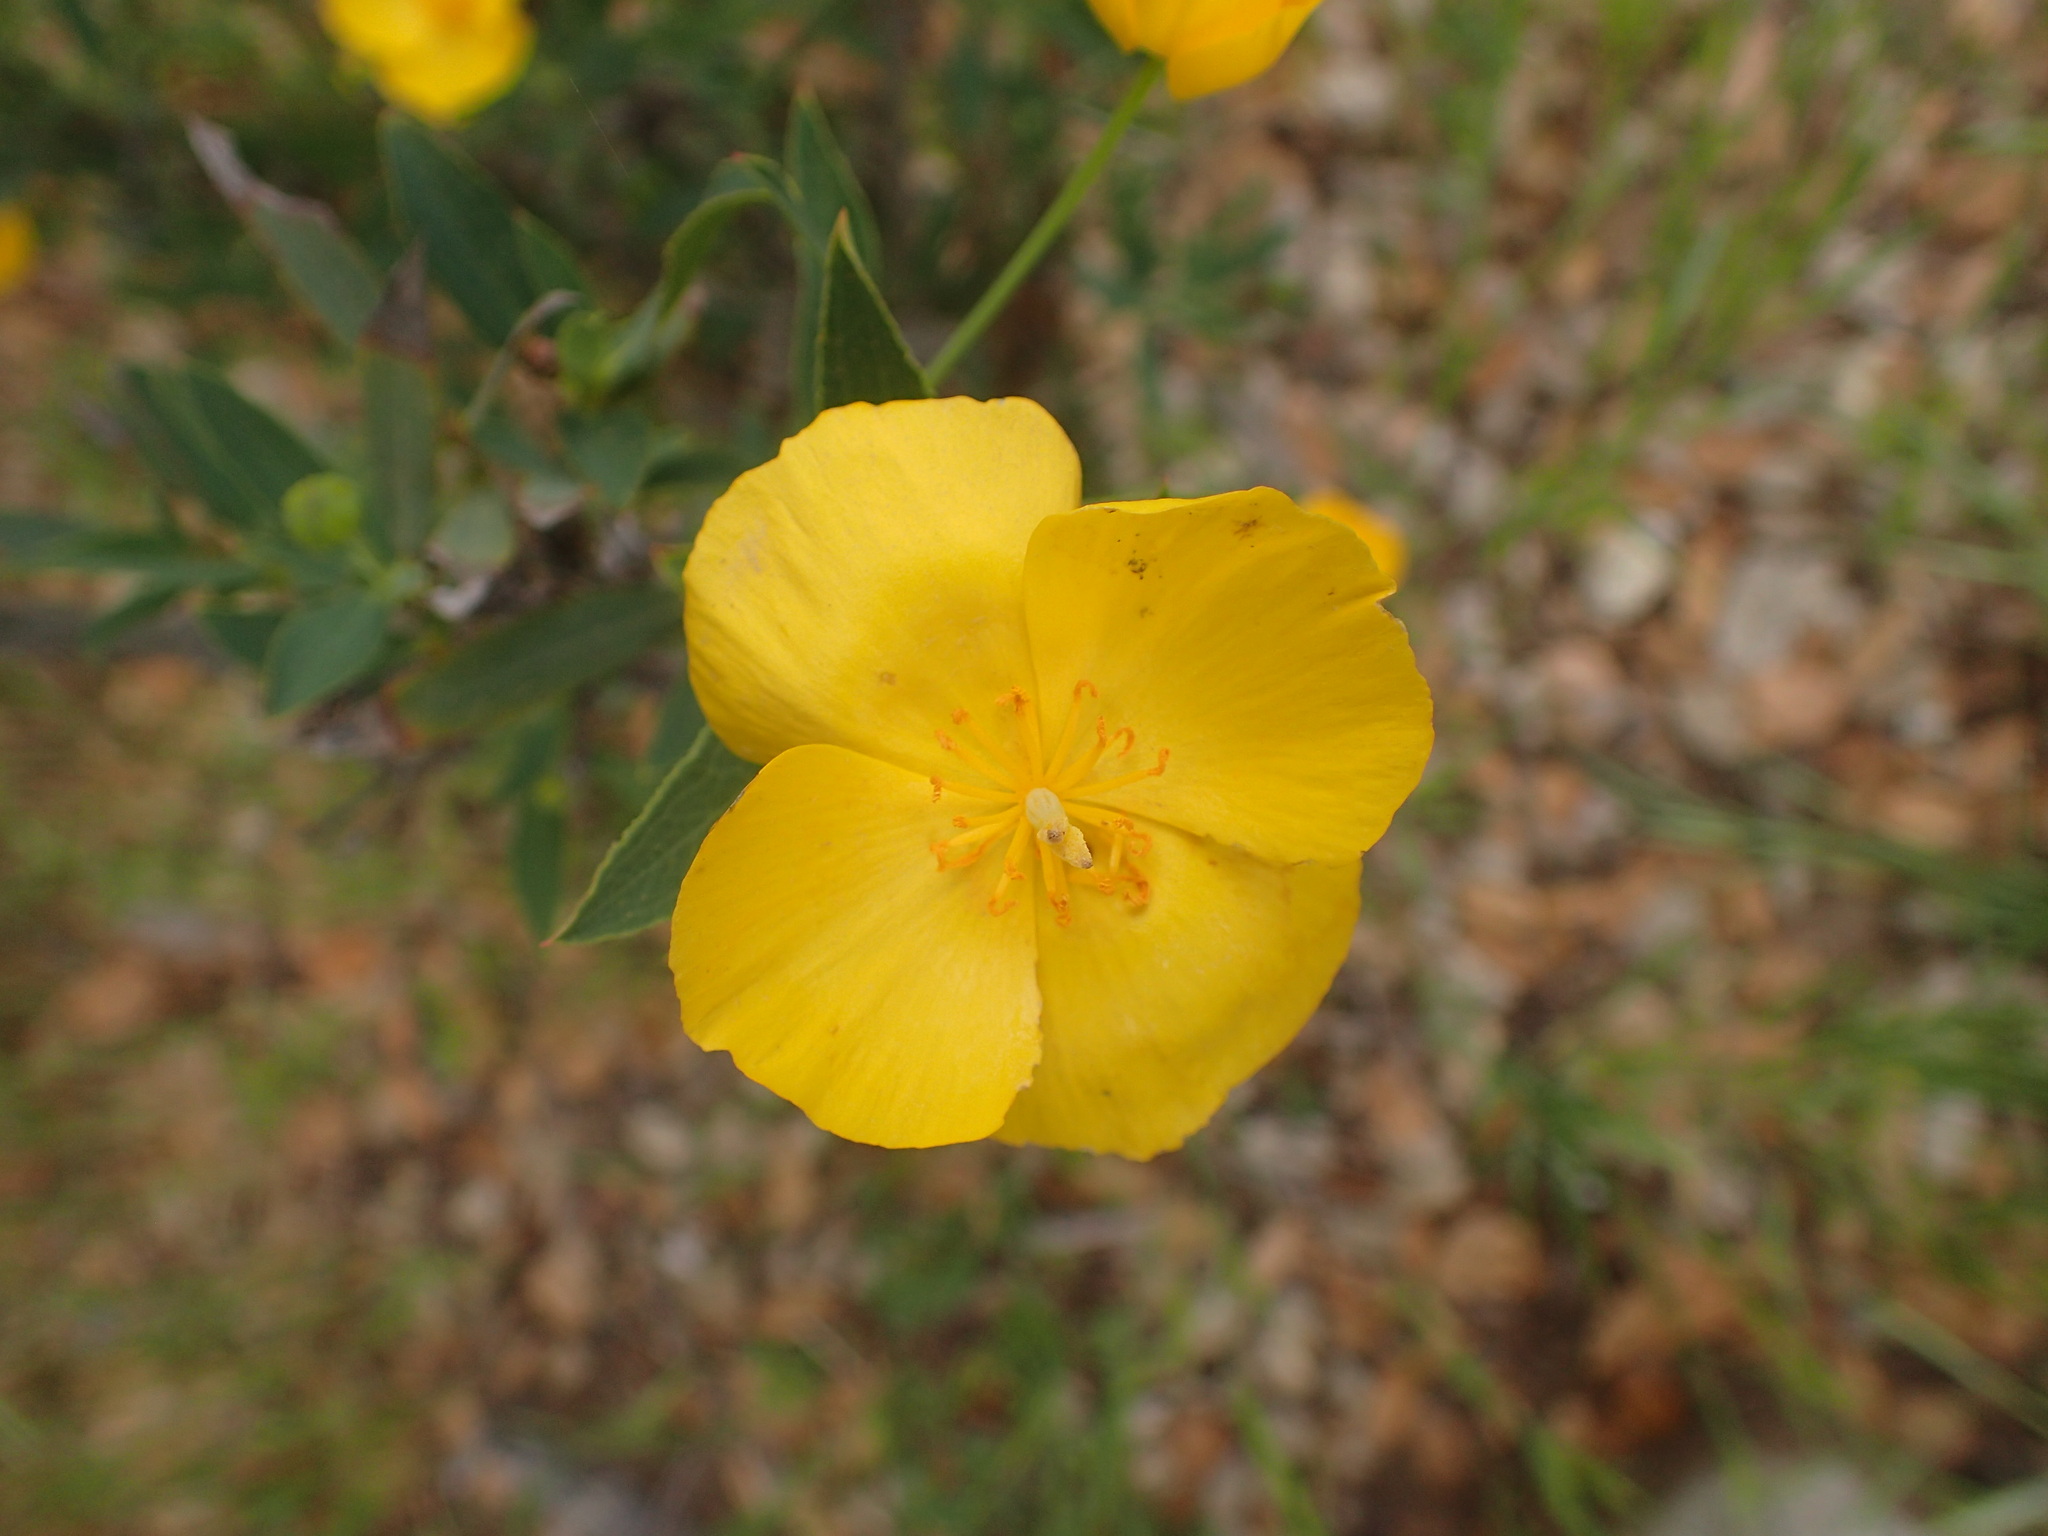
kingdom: Plantae
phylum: Tracheophyta
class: Magnoliopsida
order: Ranunculales
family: Papaveraceae
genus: Dendromecon
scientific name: Dendromecon rigida
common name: Tree poppy
